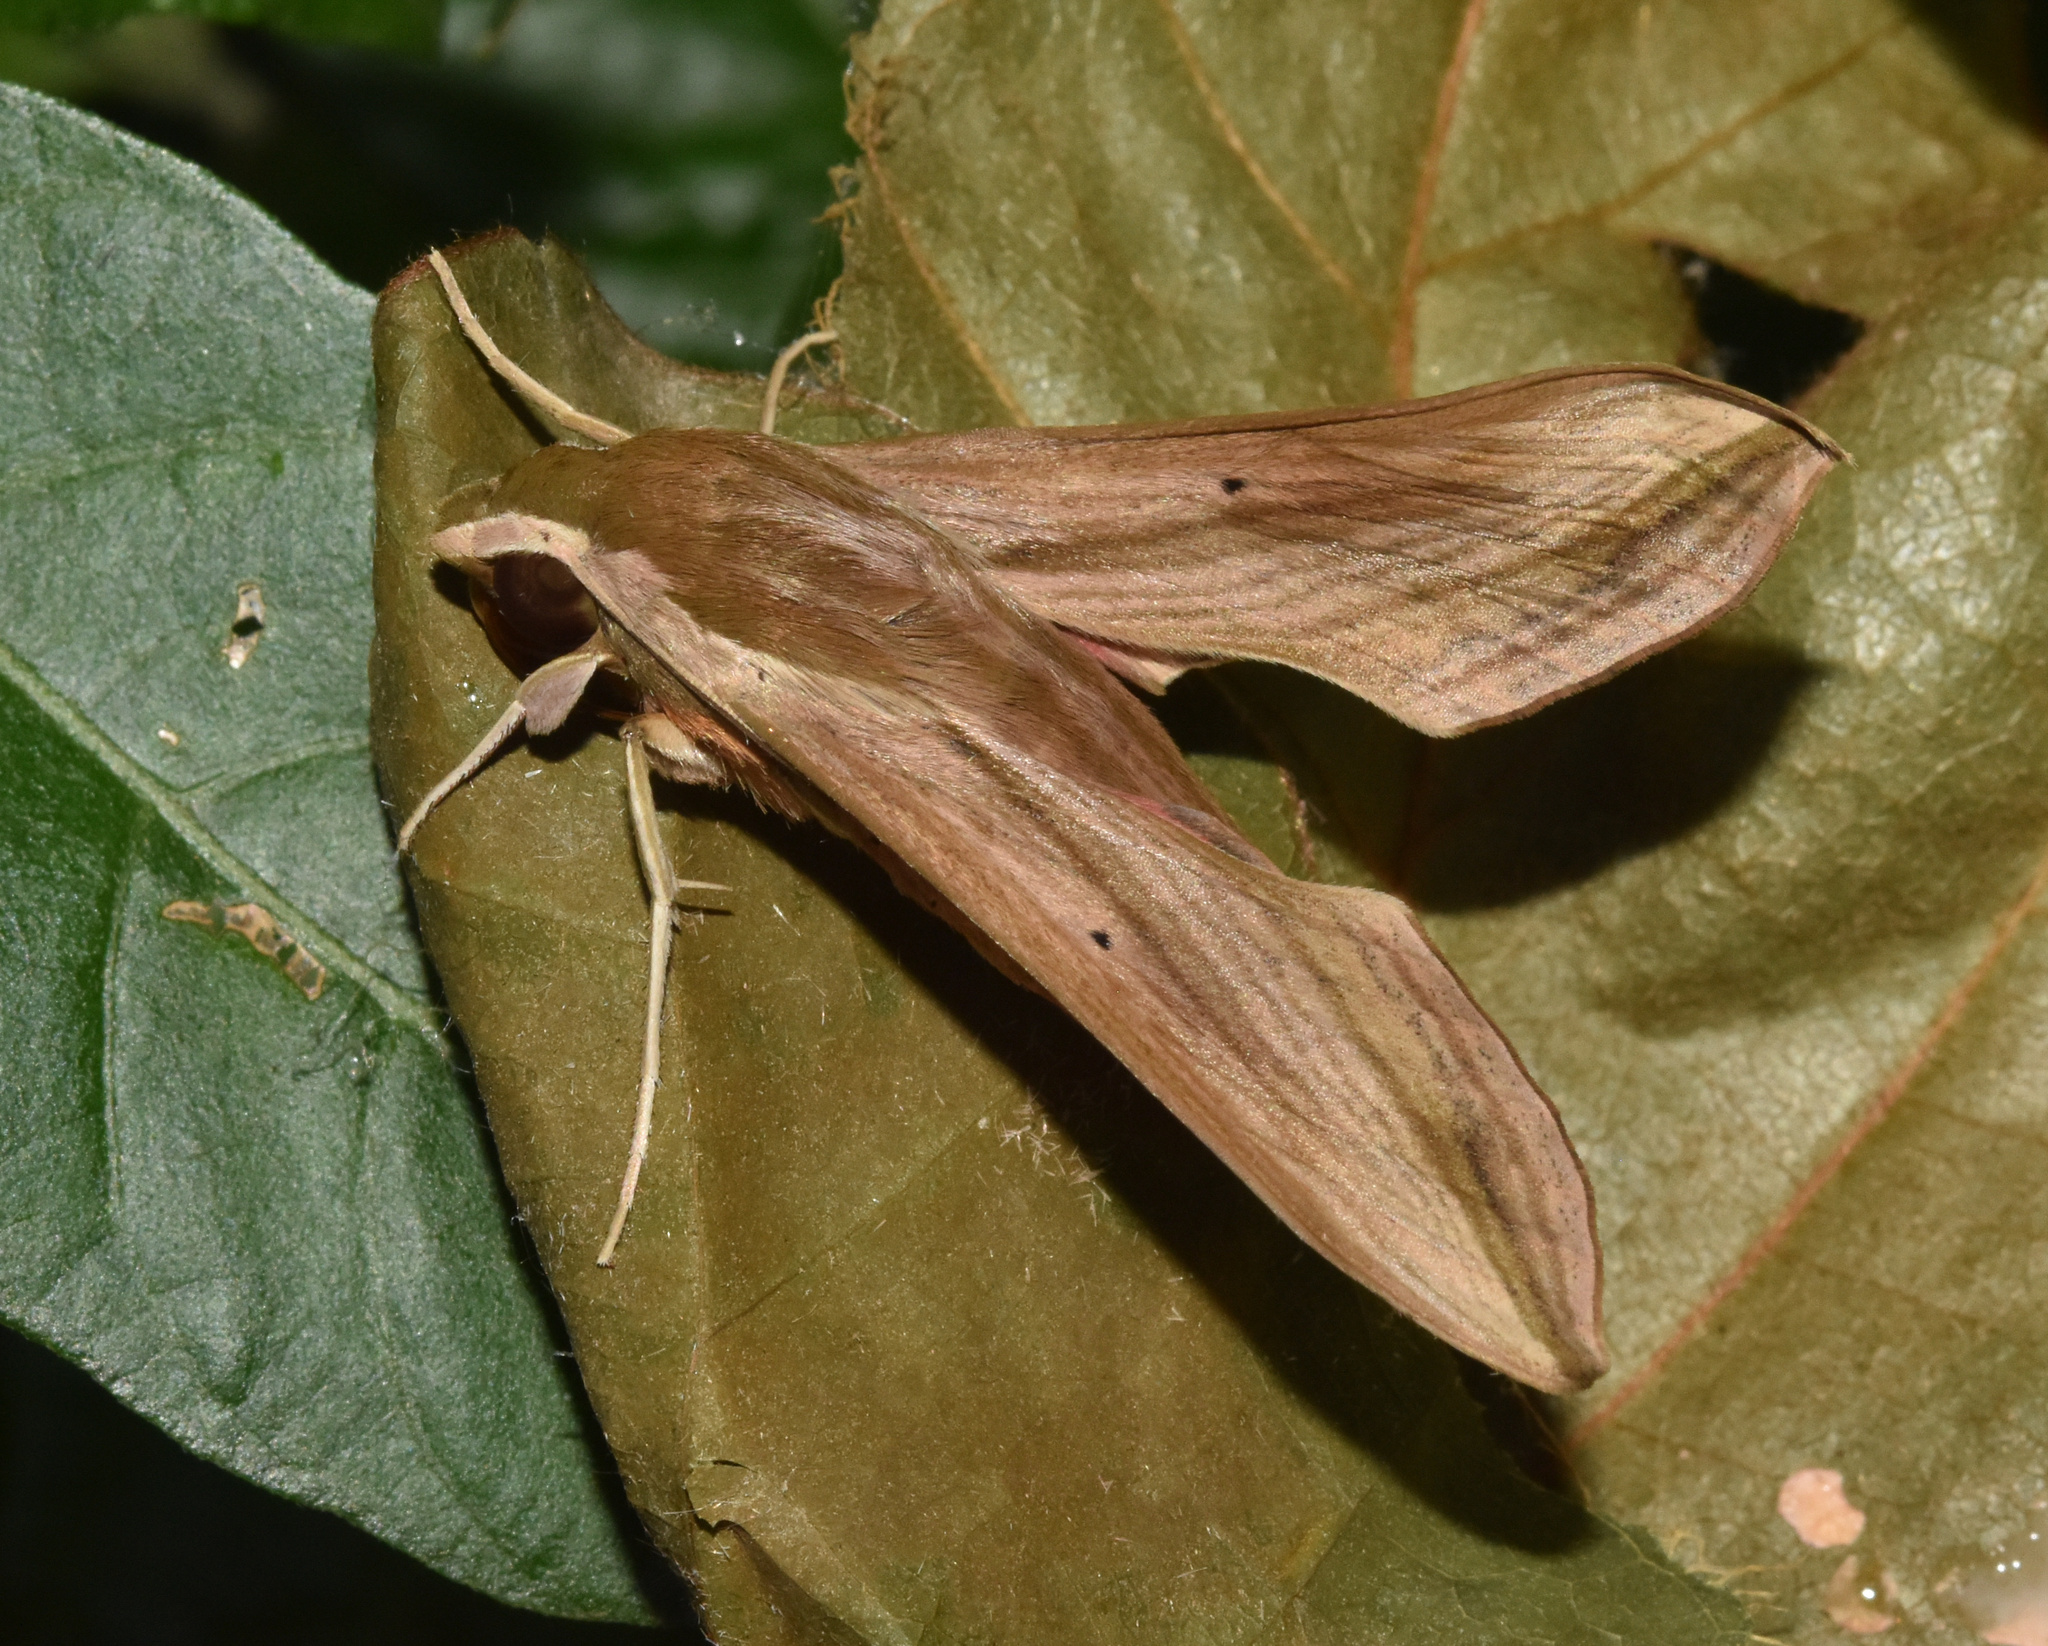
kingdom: Animalia
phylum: Arthropoda
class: Insecta
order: Lepidoptera
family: Sphingidae
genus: Hippotion
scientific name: Hippotion eson
